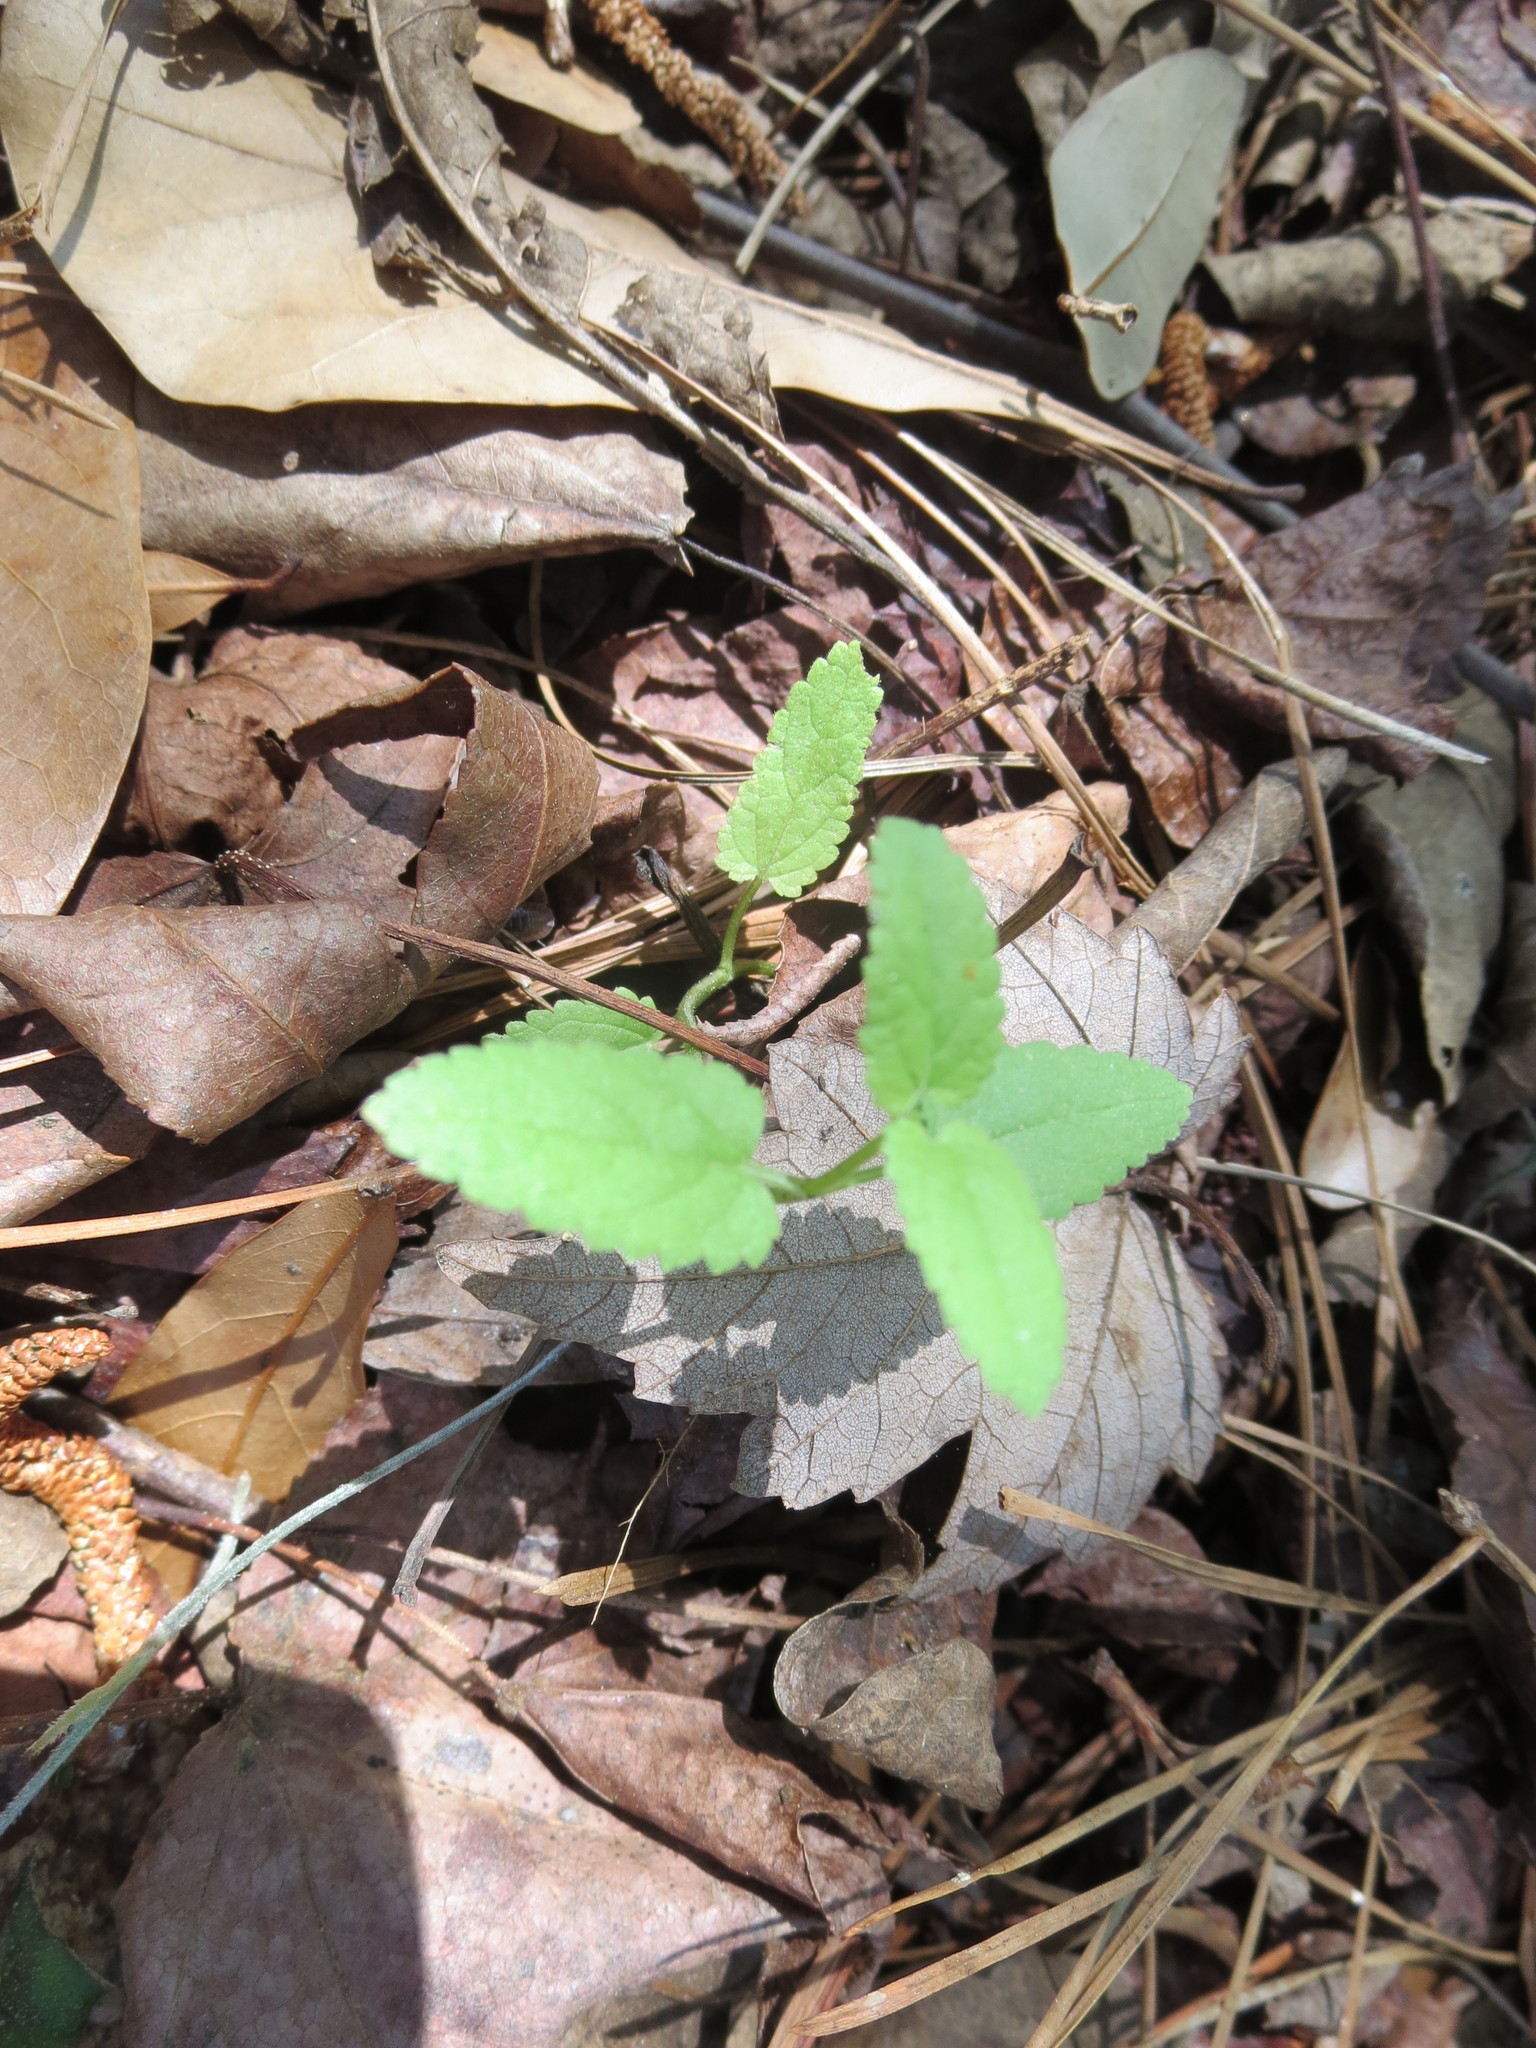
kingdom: Plantae
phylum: Tracheophyta
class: Magnoliopsida
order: Lamiales
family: Lamiaceae
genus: Stachys
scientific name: Stachys floridana
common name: Florida betony
